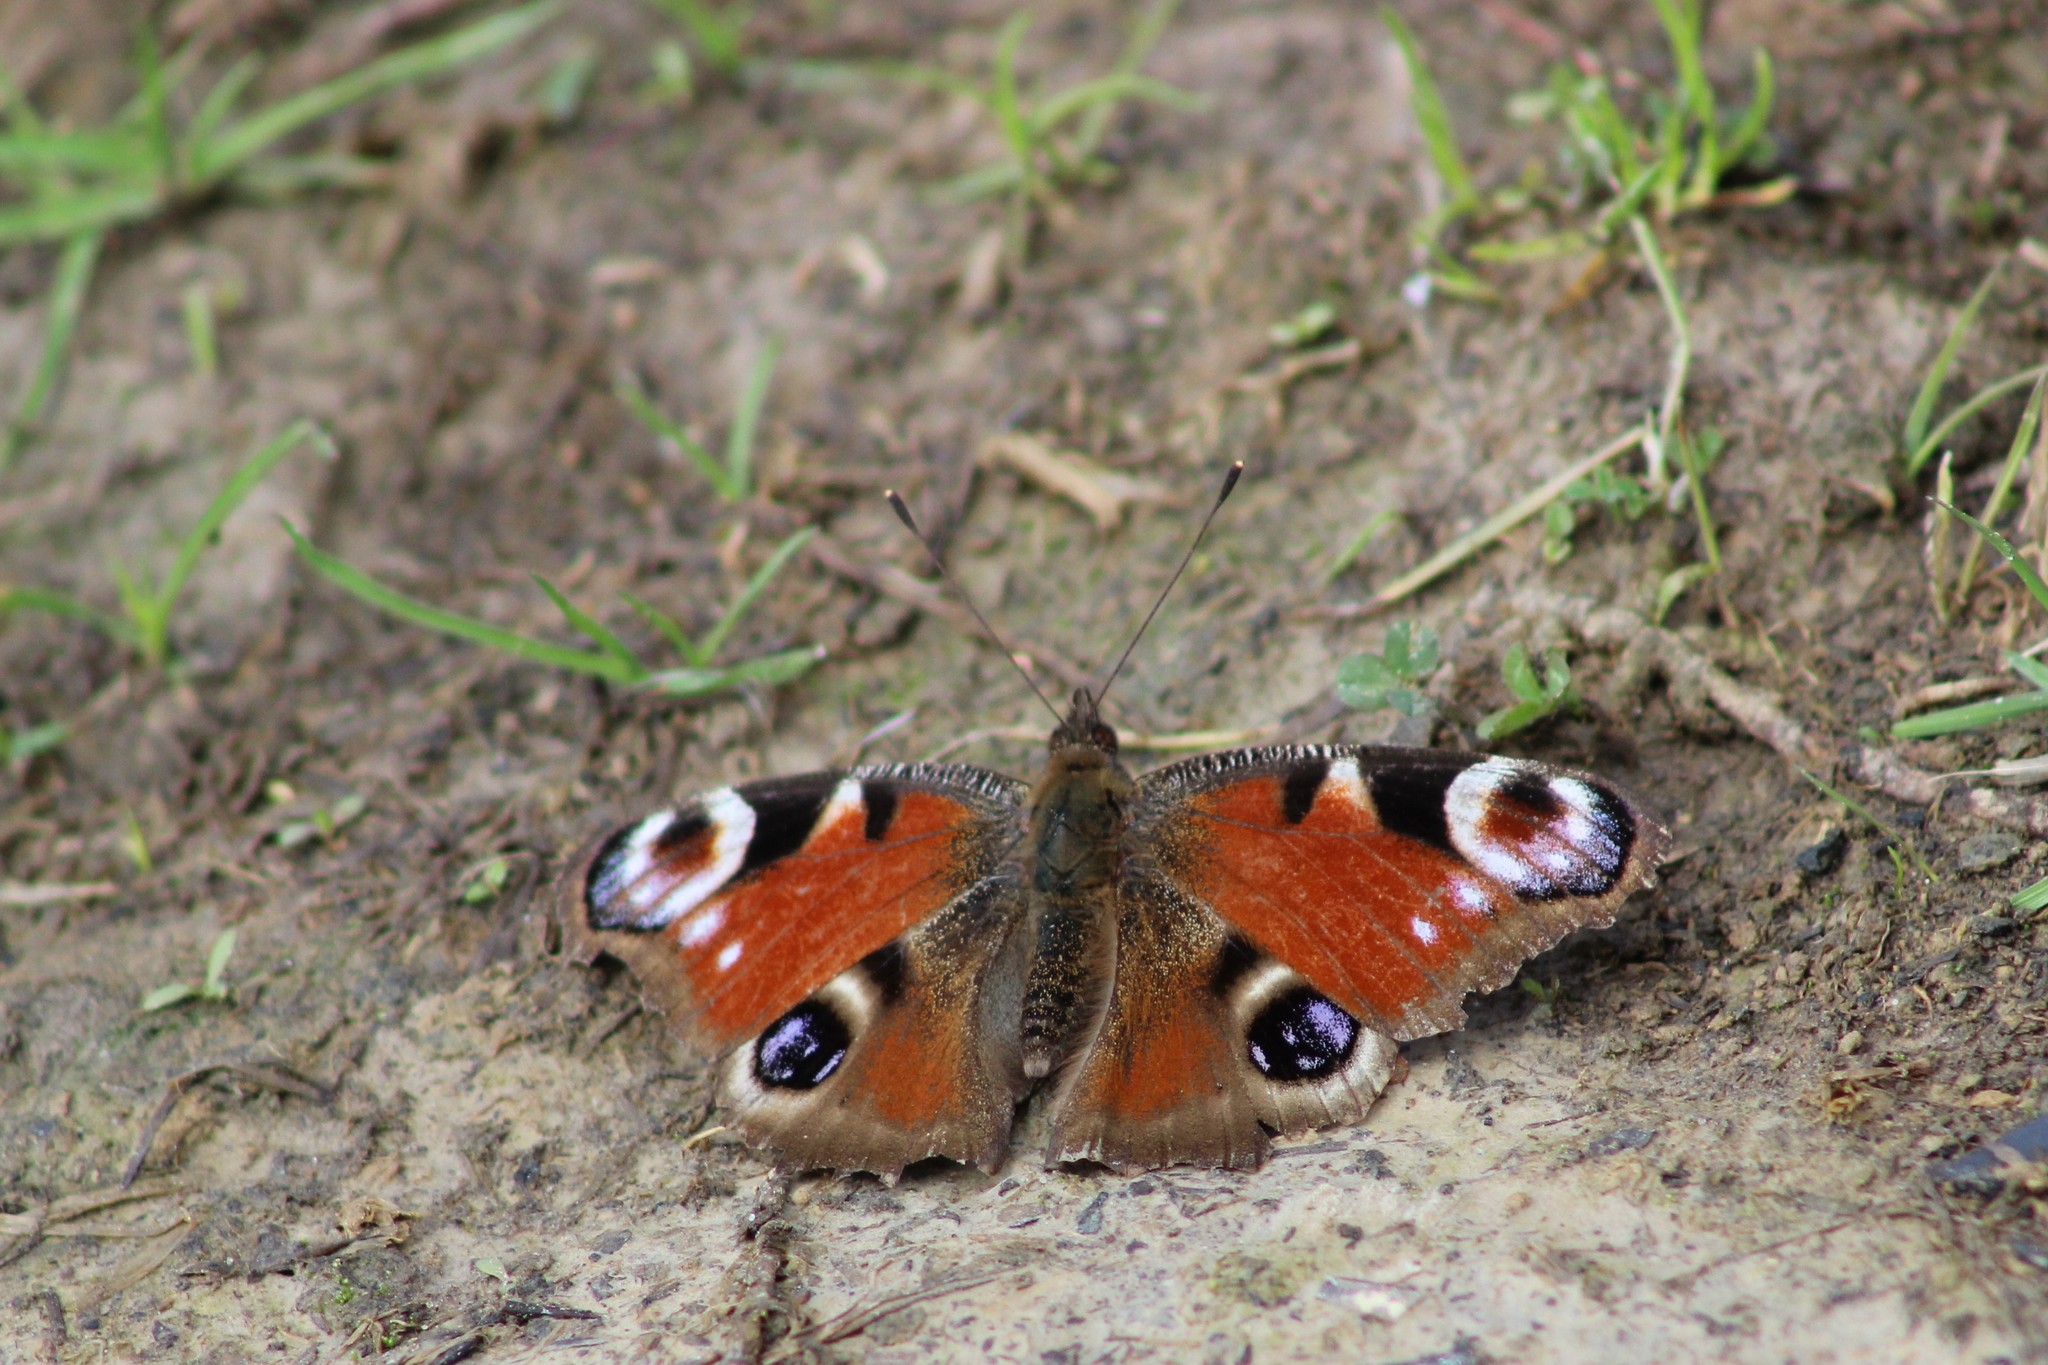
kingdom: Animalia
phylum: Arthropoda
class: Insecta
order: Lepidoptera
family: Nymphalidae
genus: Aglais
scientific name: Aglais io
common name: Peacock
